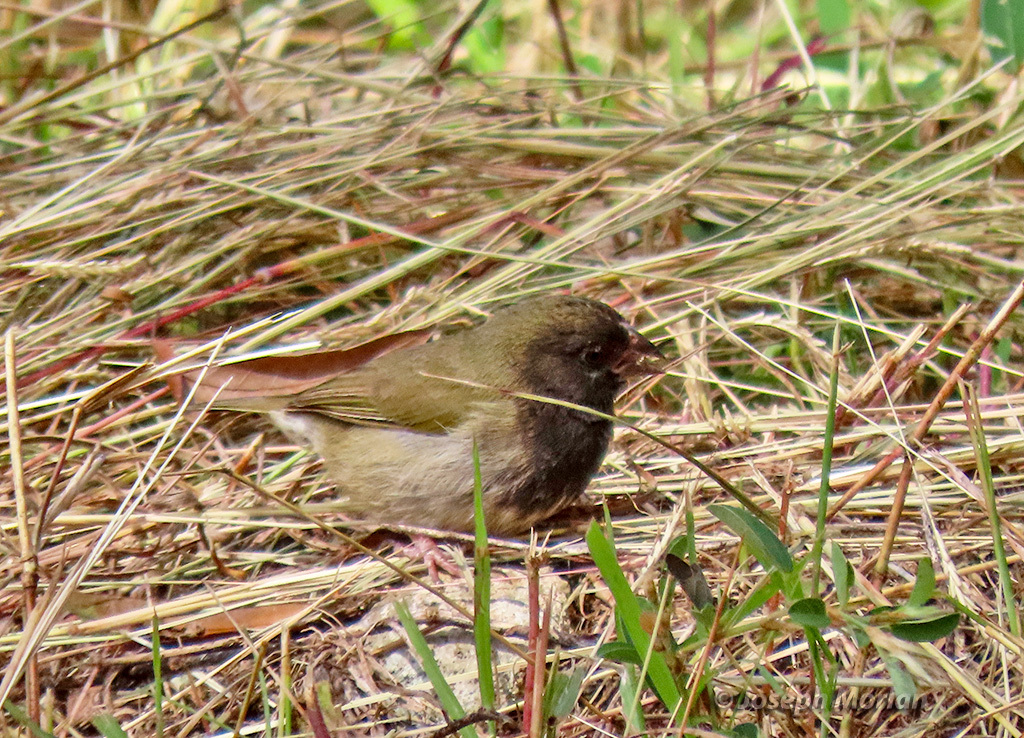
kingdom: Animalia
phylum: Chordata
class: Aves
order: Passeriformes
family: Thraupidae
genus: Melanospiza
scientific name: Melanospiza bicolor
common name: Black-faced grassquit
